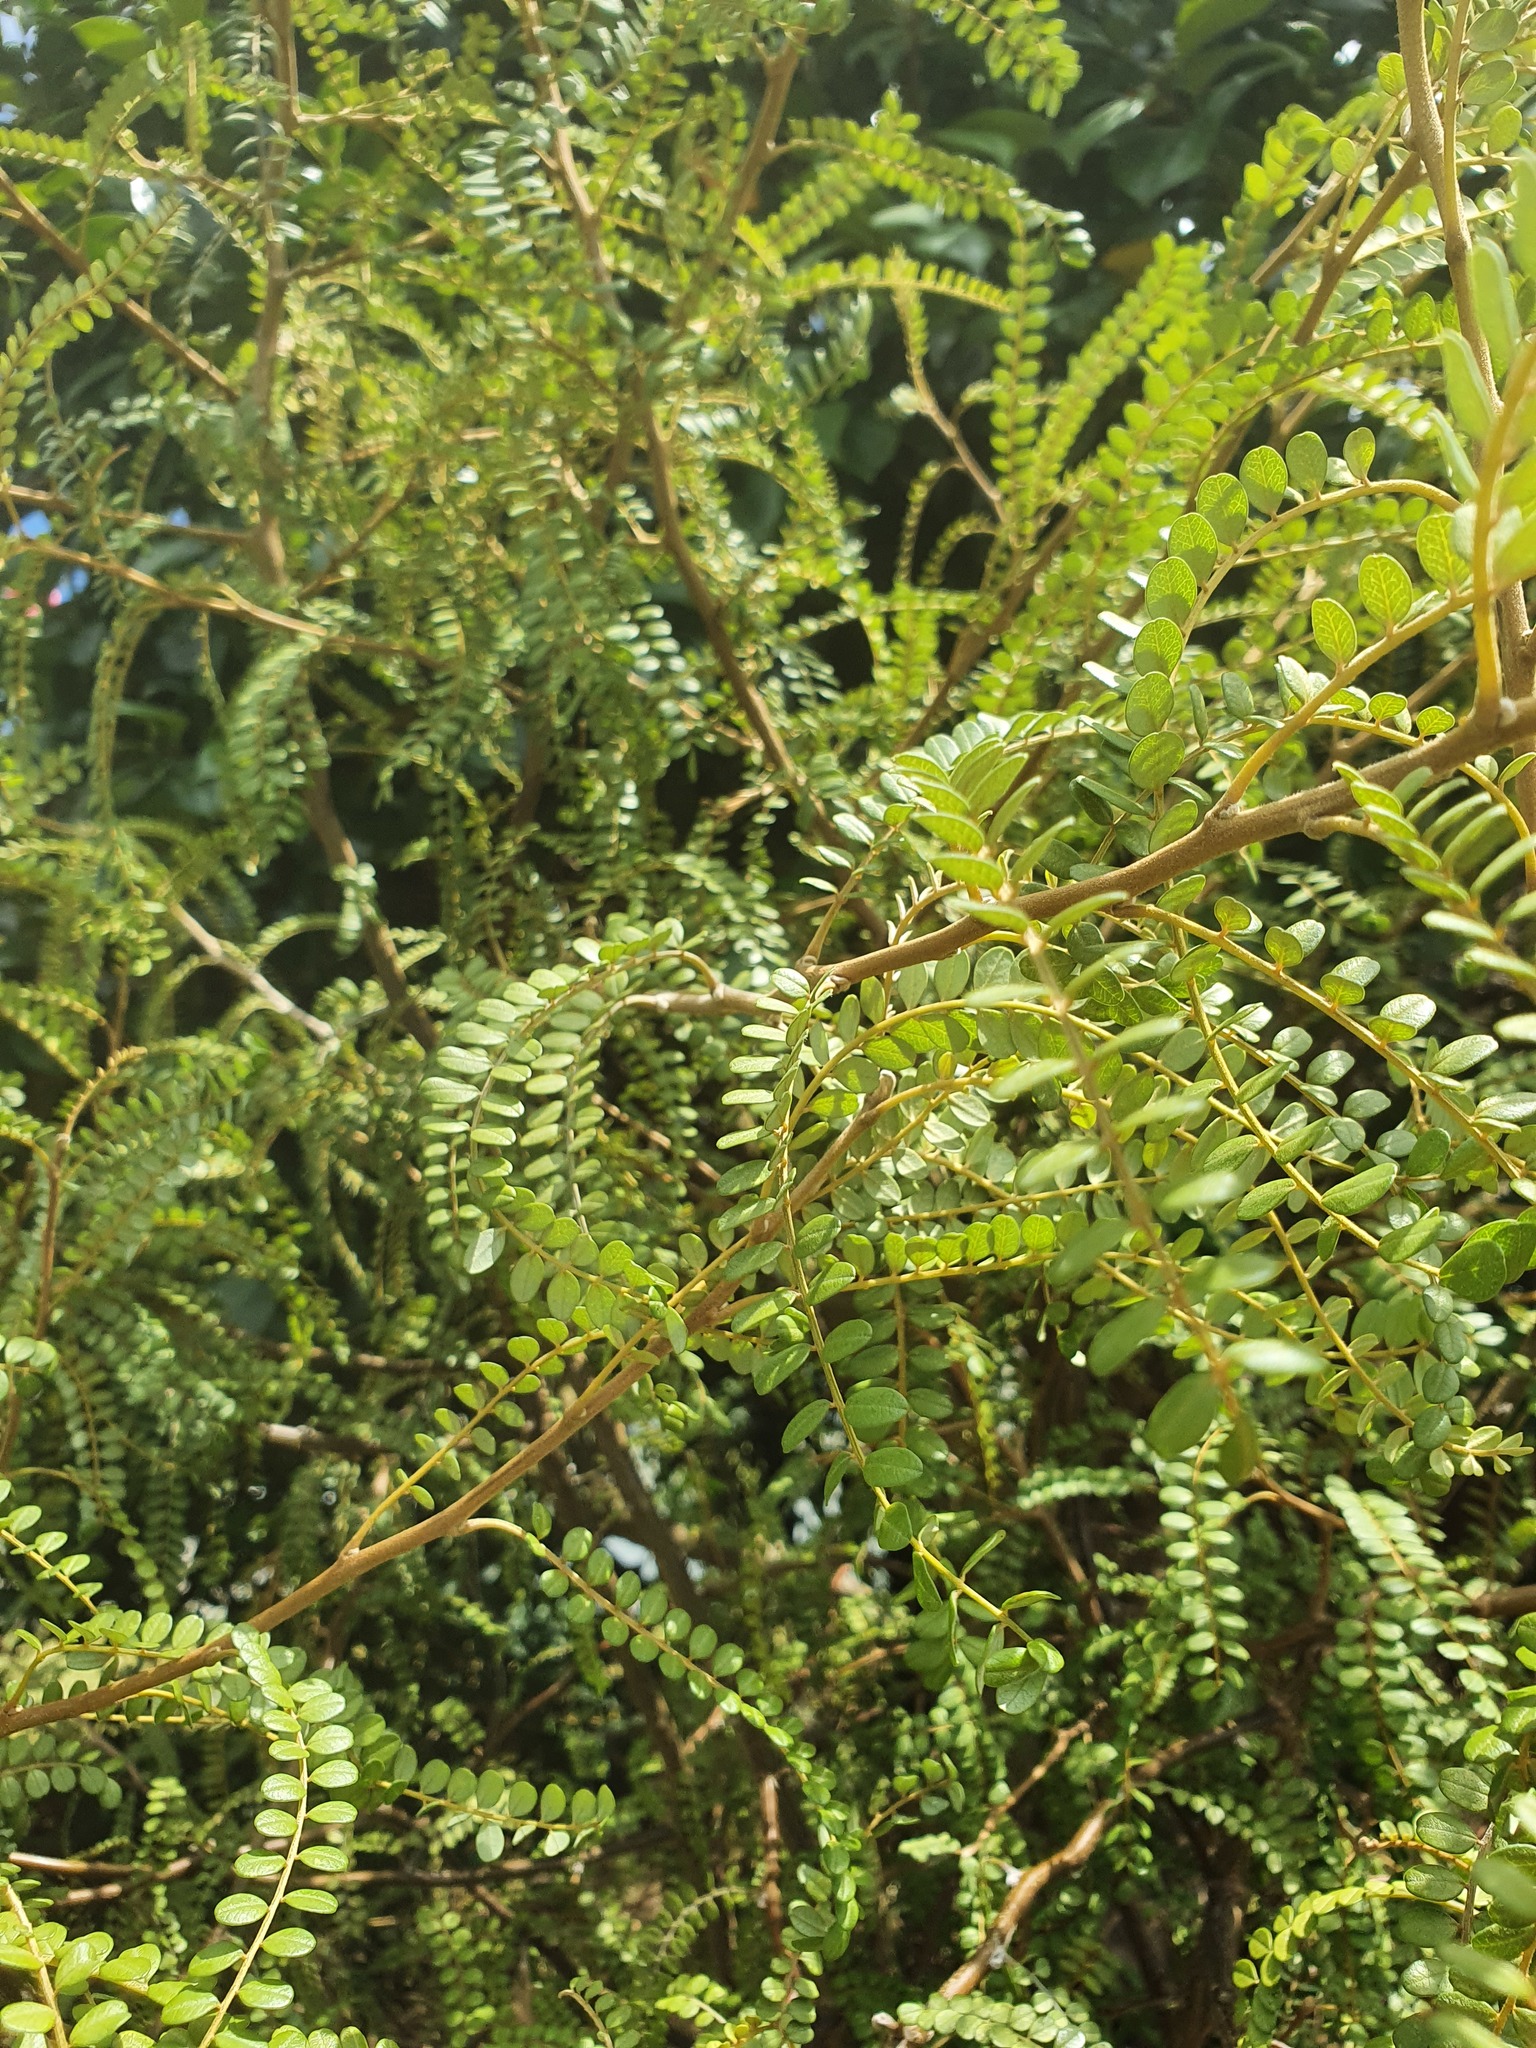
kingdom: Plantae
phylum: Tracheophyta
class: Magnoliopsida
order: Fabales
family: Fabaceae
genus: Sophora
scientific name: Sophora chathamica
